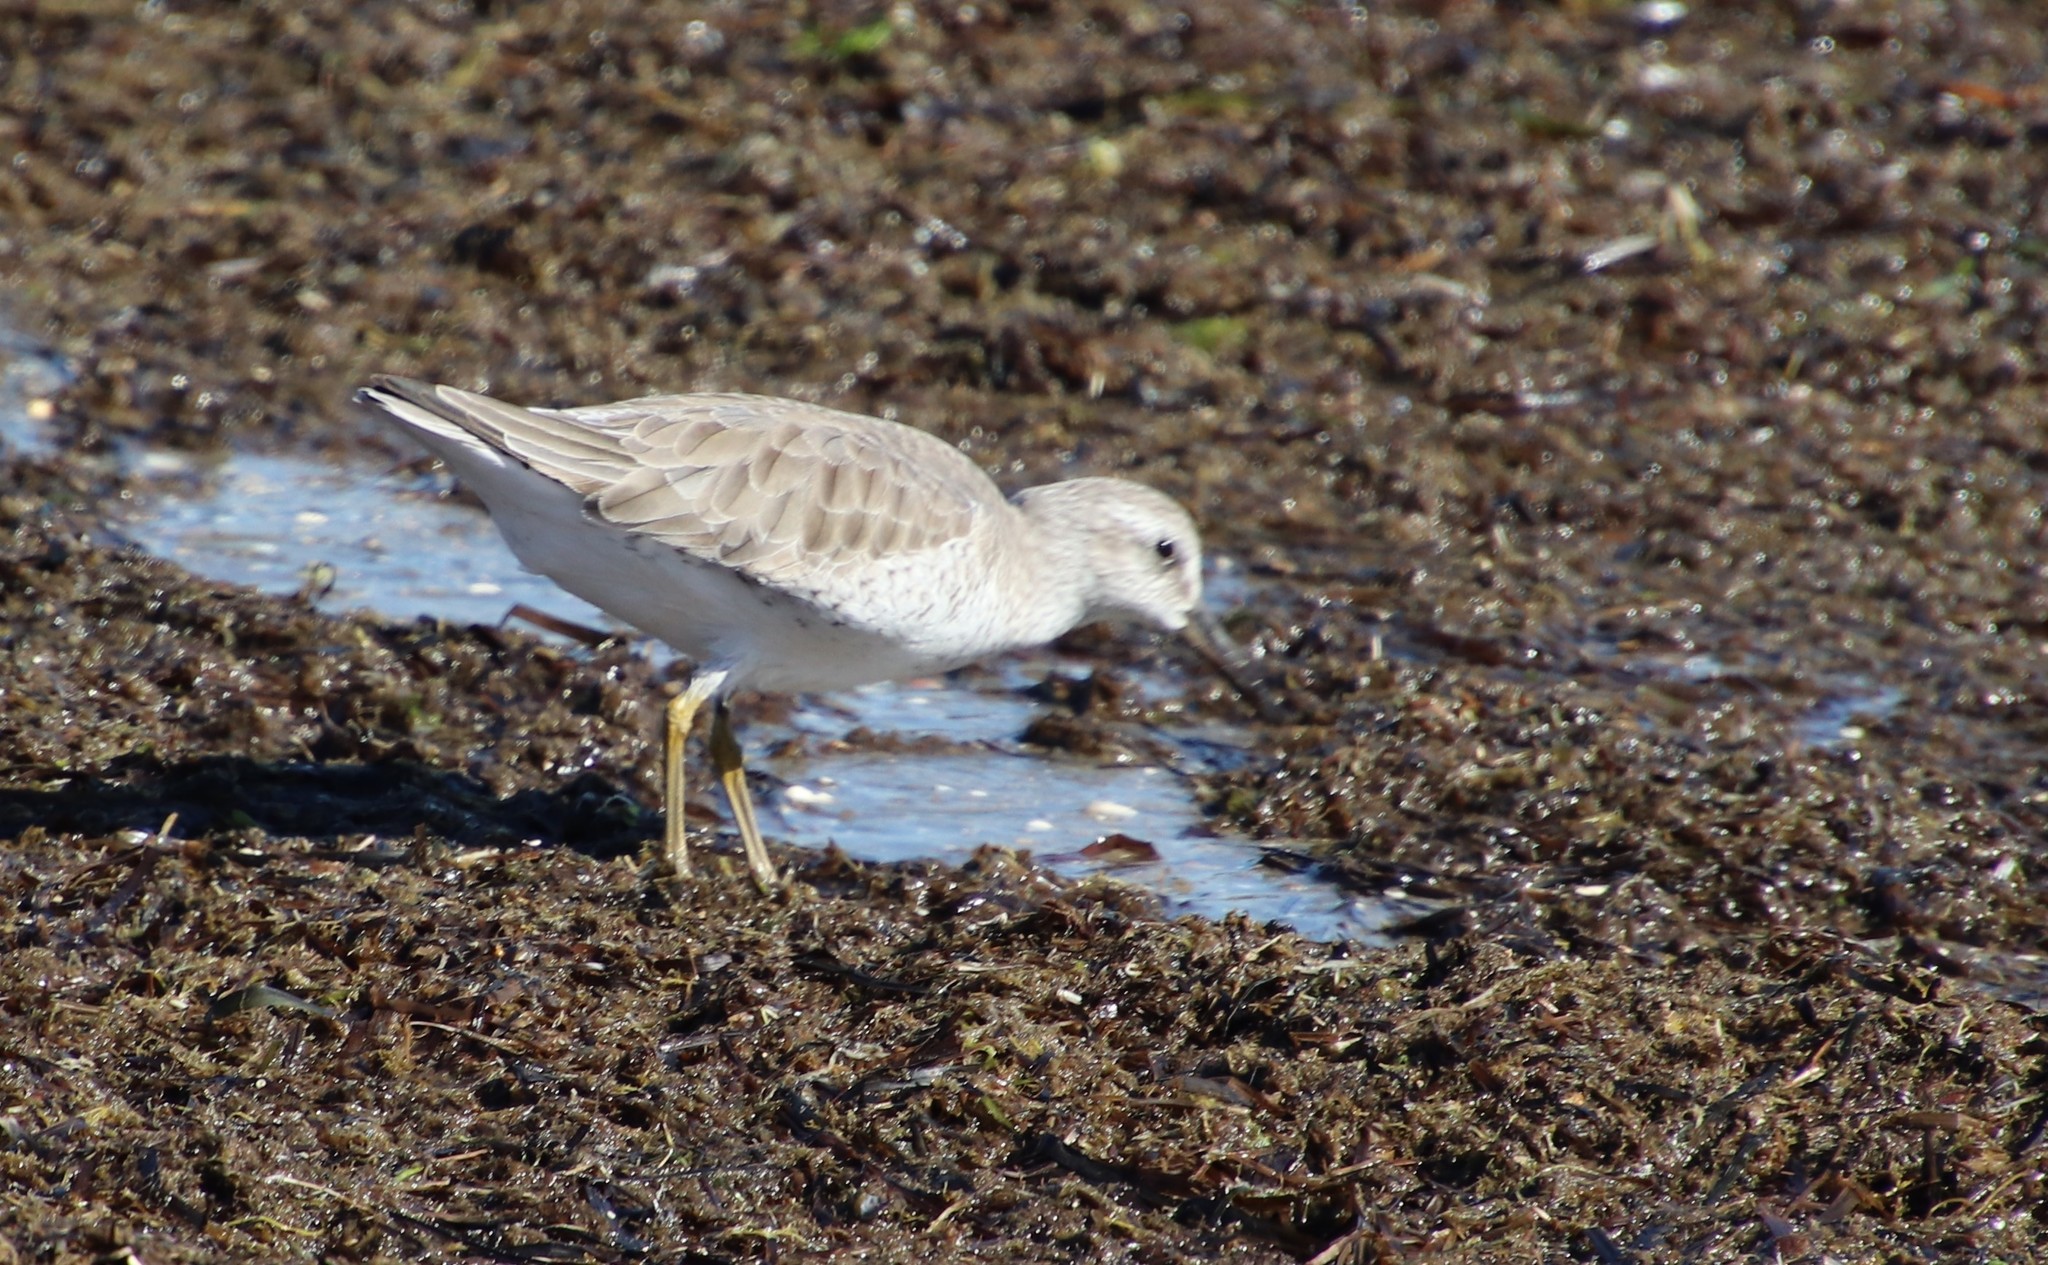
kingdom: Animalia
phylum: Chordata
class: Aves
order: Charadriiformes
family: Scolopacidae
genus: Calidris
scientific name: Calidris canutus
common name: Red knot
